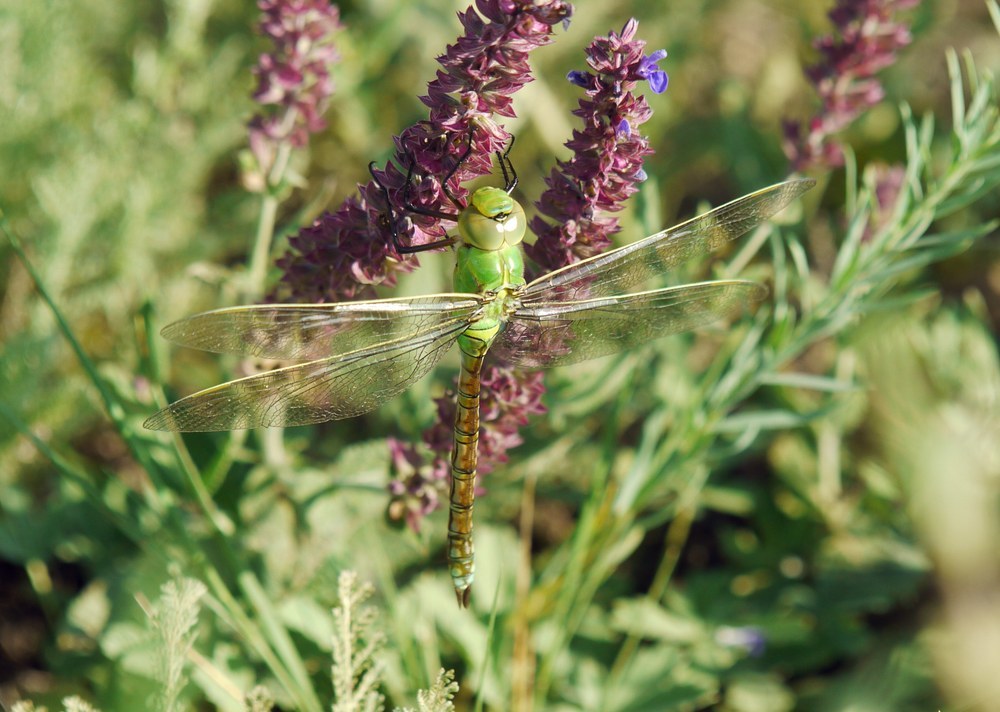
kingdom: Animalia
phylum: Arthropoda
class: Insecta
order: Odonata
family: Aeshnidae
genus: Anax
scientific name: Anax imperator
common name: Emperor dragonfly
